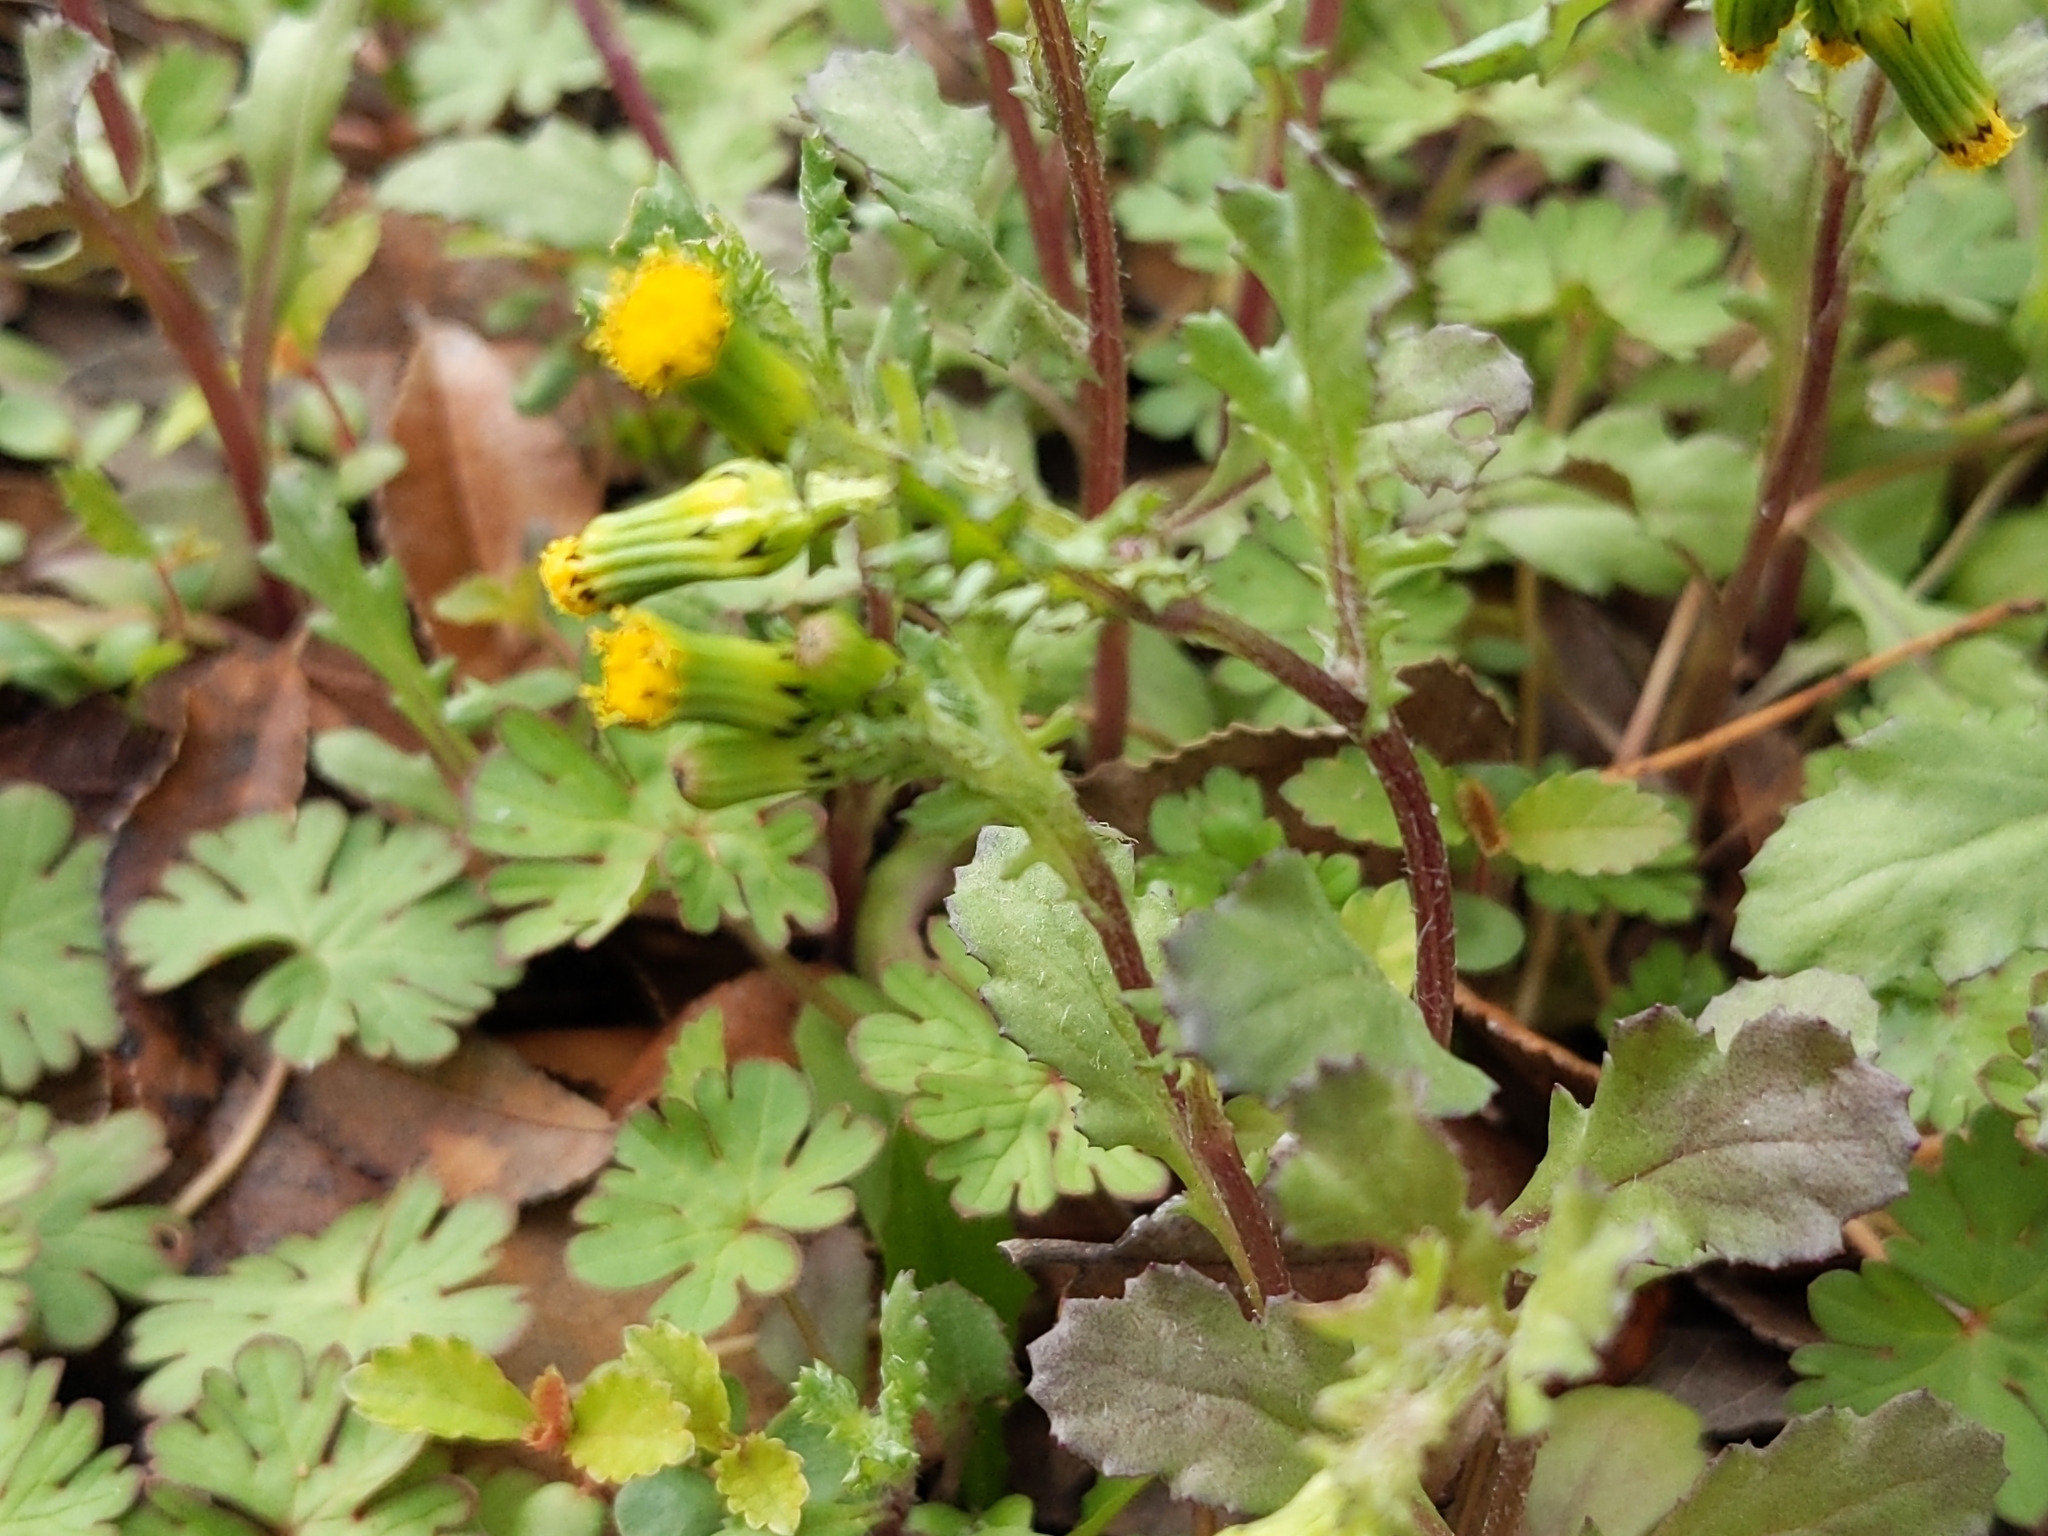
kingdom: Plantae
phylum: Tracheophyta
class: Magnoliopsida
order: Asterales
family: Asteraceae
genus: Senecio
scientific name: Senecio vulgaris
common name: Old-man-in-the-spring
